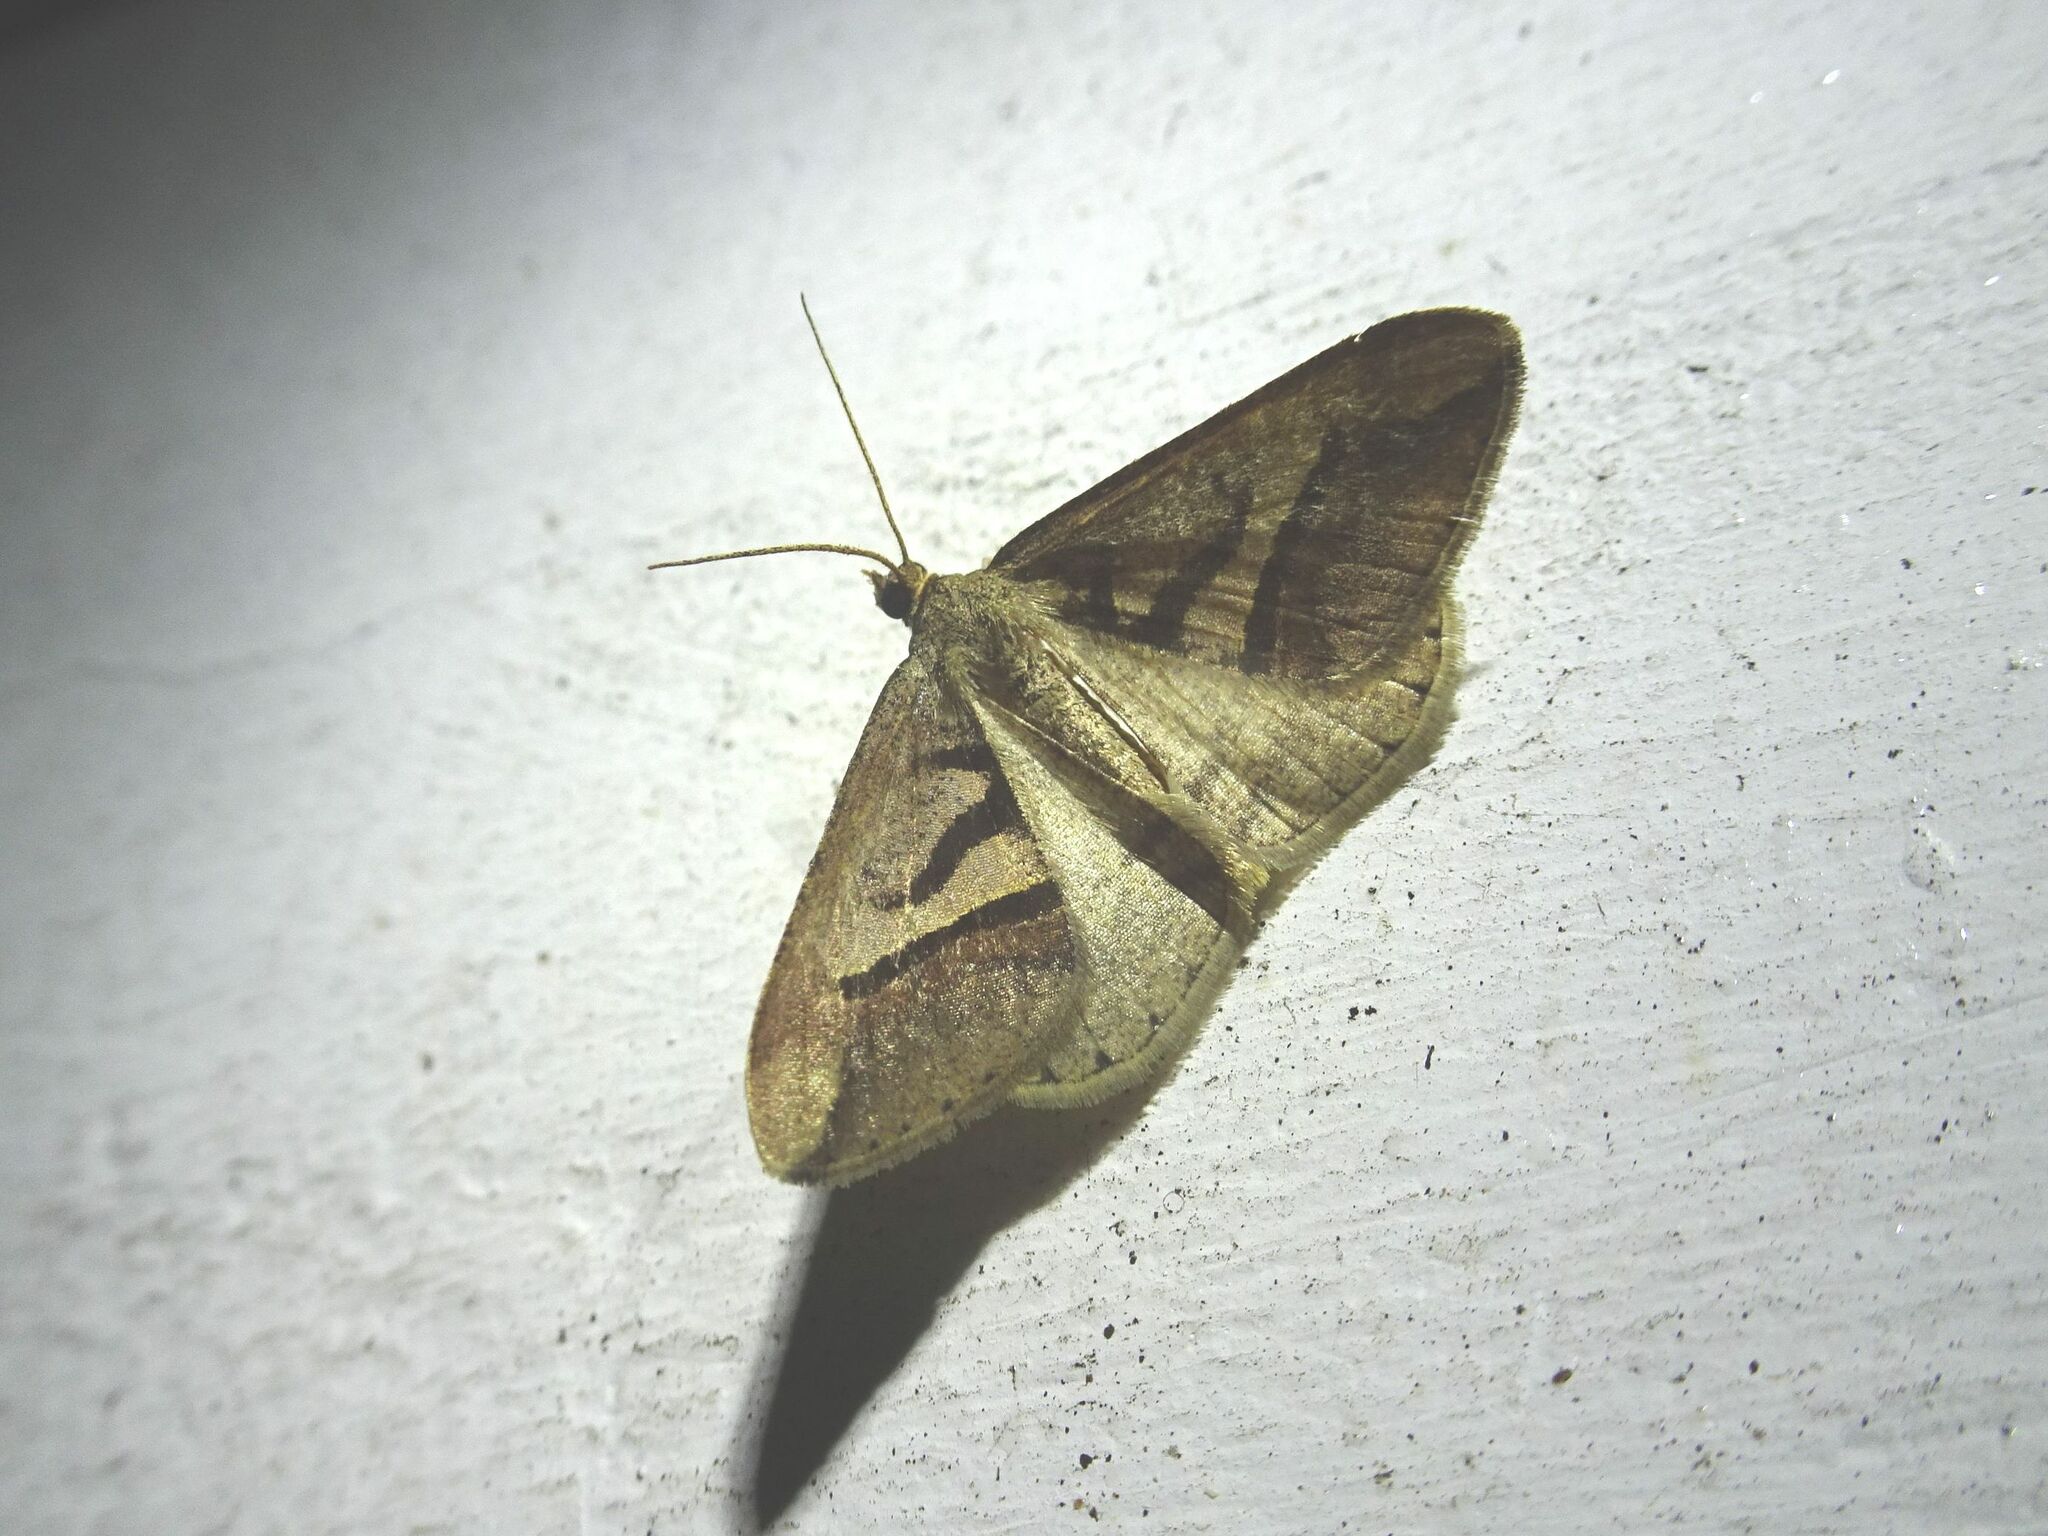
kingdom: Animalia
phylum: Arthropoda
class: Insecta
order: Lepidoptera
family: Geometridae
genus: Chiasmia
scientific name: Chiasmia observata
